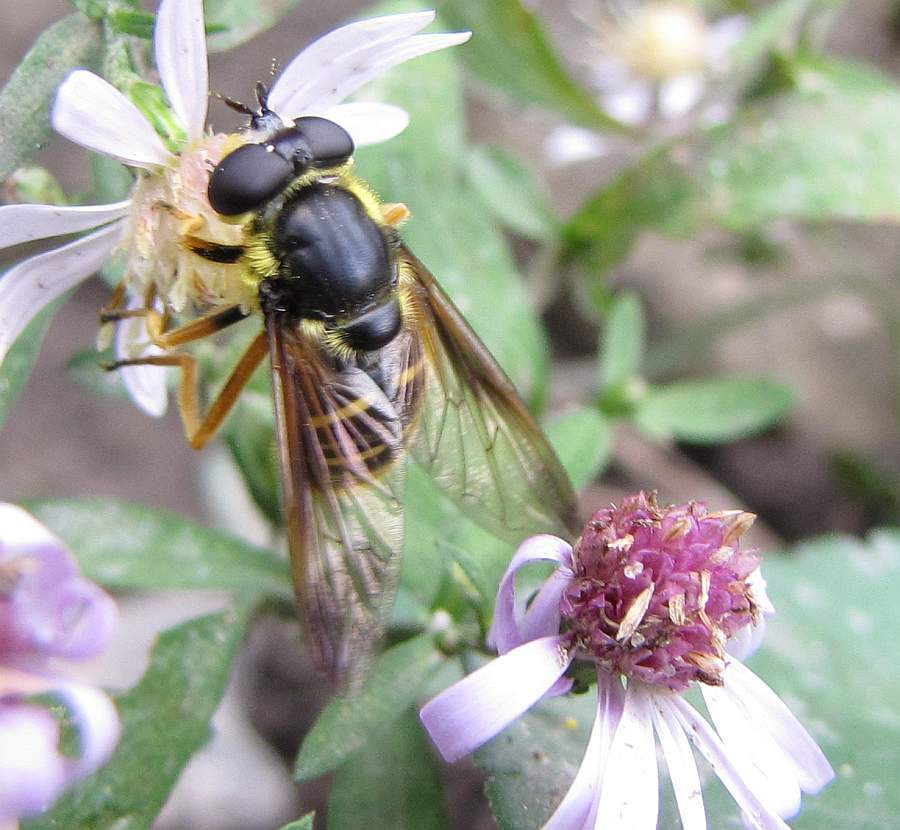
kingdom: Animalia
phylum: Arthropoda
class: Insecta
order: Diptera
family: Syrphidae
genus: Sericomyia
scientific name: Sericomyia chrysotoxoides
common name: Oblique-banded pond fly
